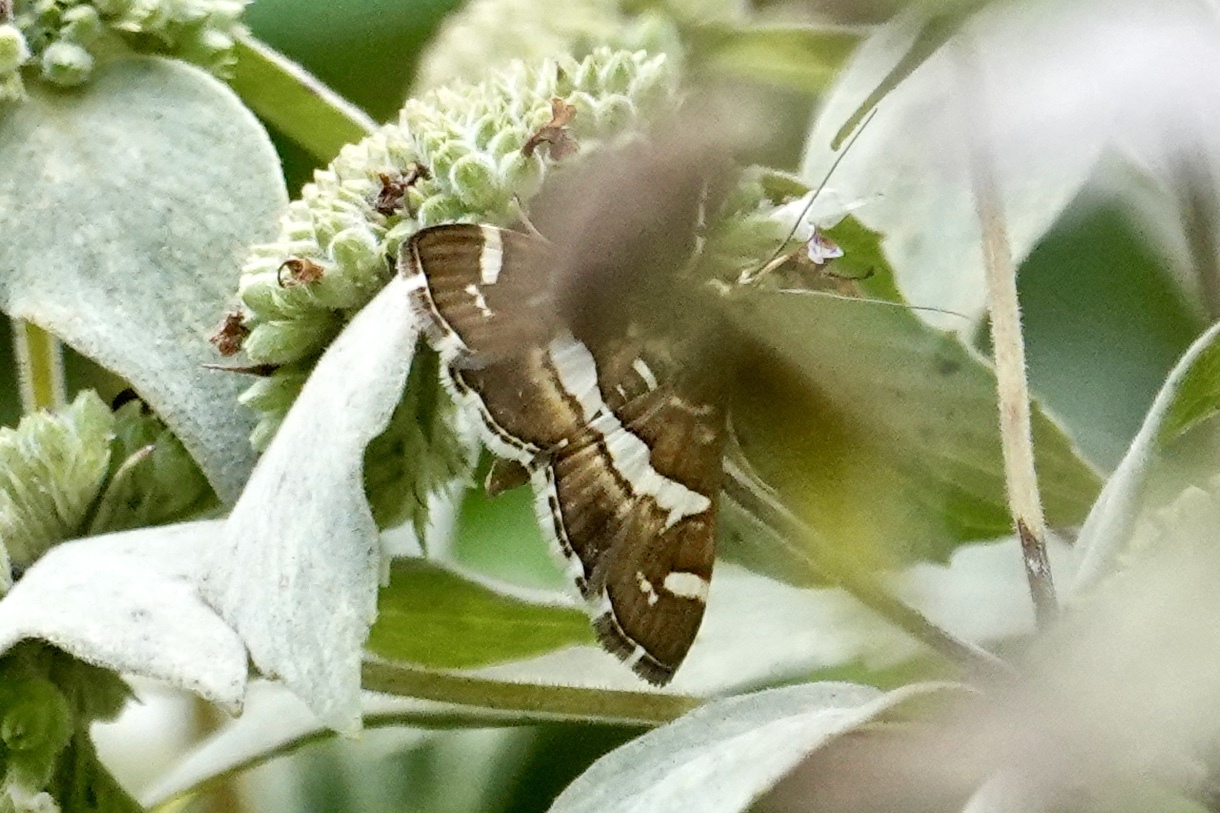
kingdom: Animalia
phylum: Arthropoda
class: Insecta
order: Lepidoptera
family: Crambidae
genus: Spoladea
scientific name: Spoladea recurvalis
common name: Beet webworm moth
